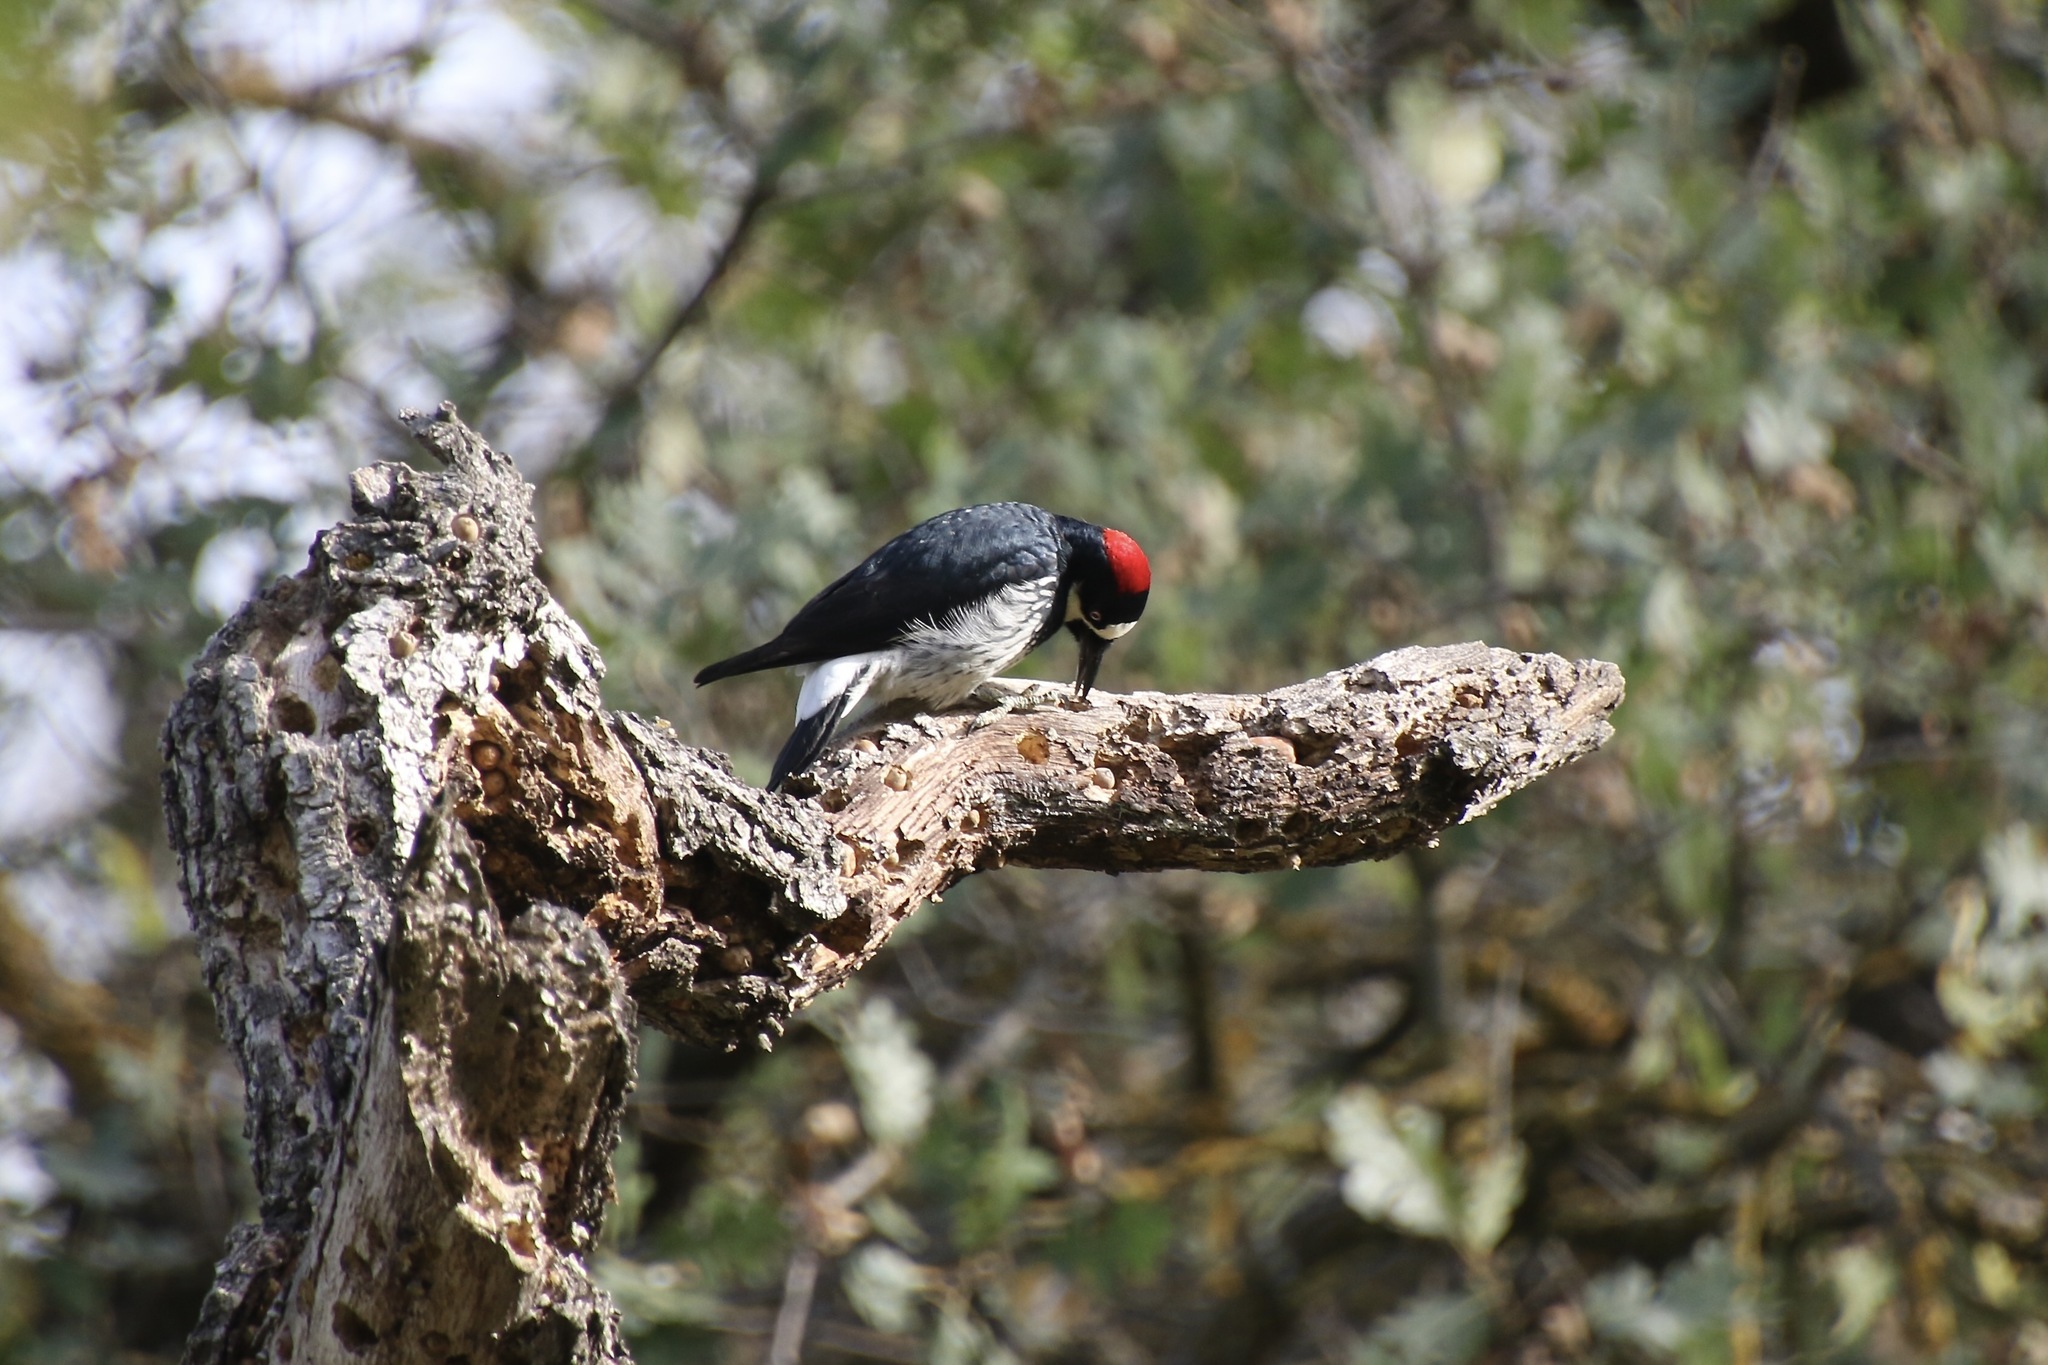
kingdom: Animalia
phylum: Chordata
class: Aves
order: Piciformes
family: Picidae
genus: Melanerpes
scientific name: Melanerpes formicivorus
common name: Acorn woodpecker
